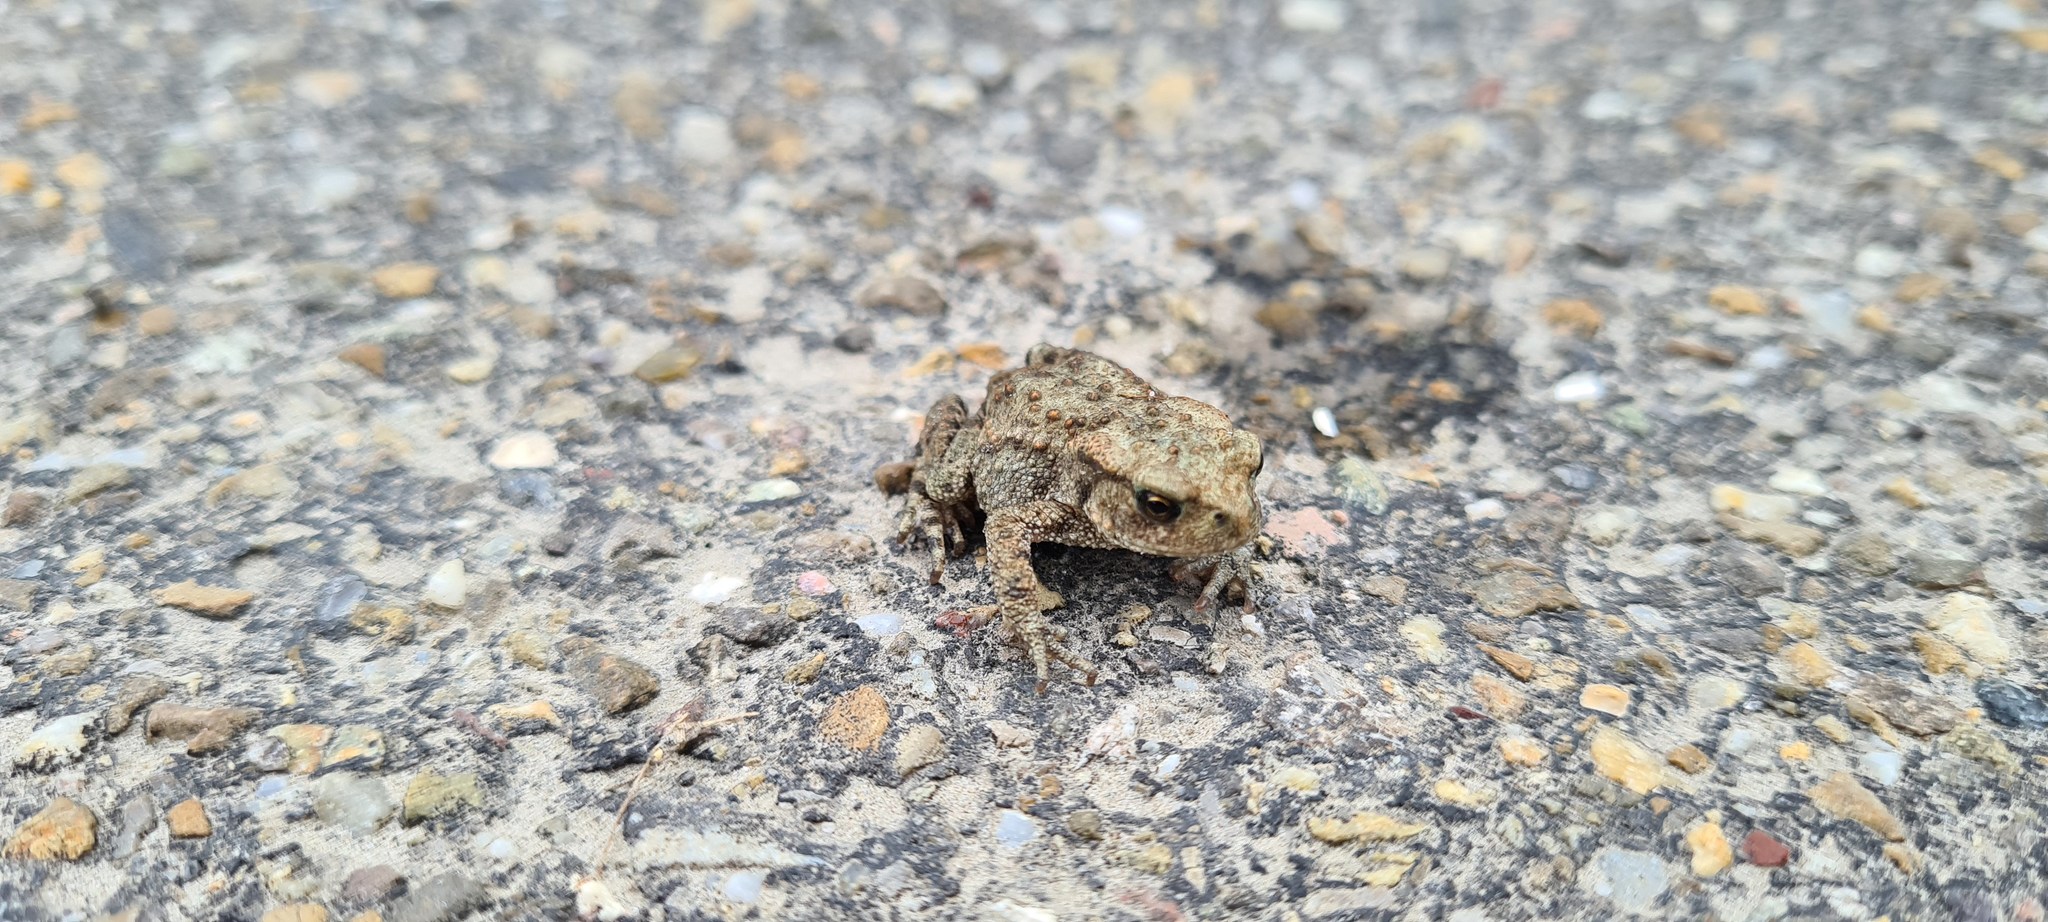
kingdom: Animalia
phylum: Chordata
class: Amphibia
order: Anura
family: Bufonidae
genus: Bufo
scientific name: Bufo bufo
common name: Common toad
